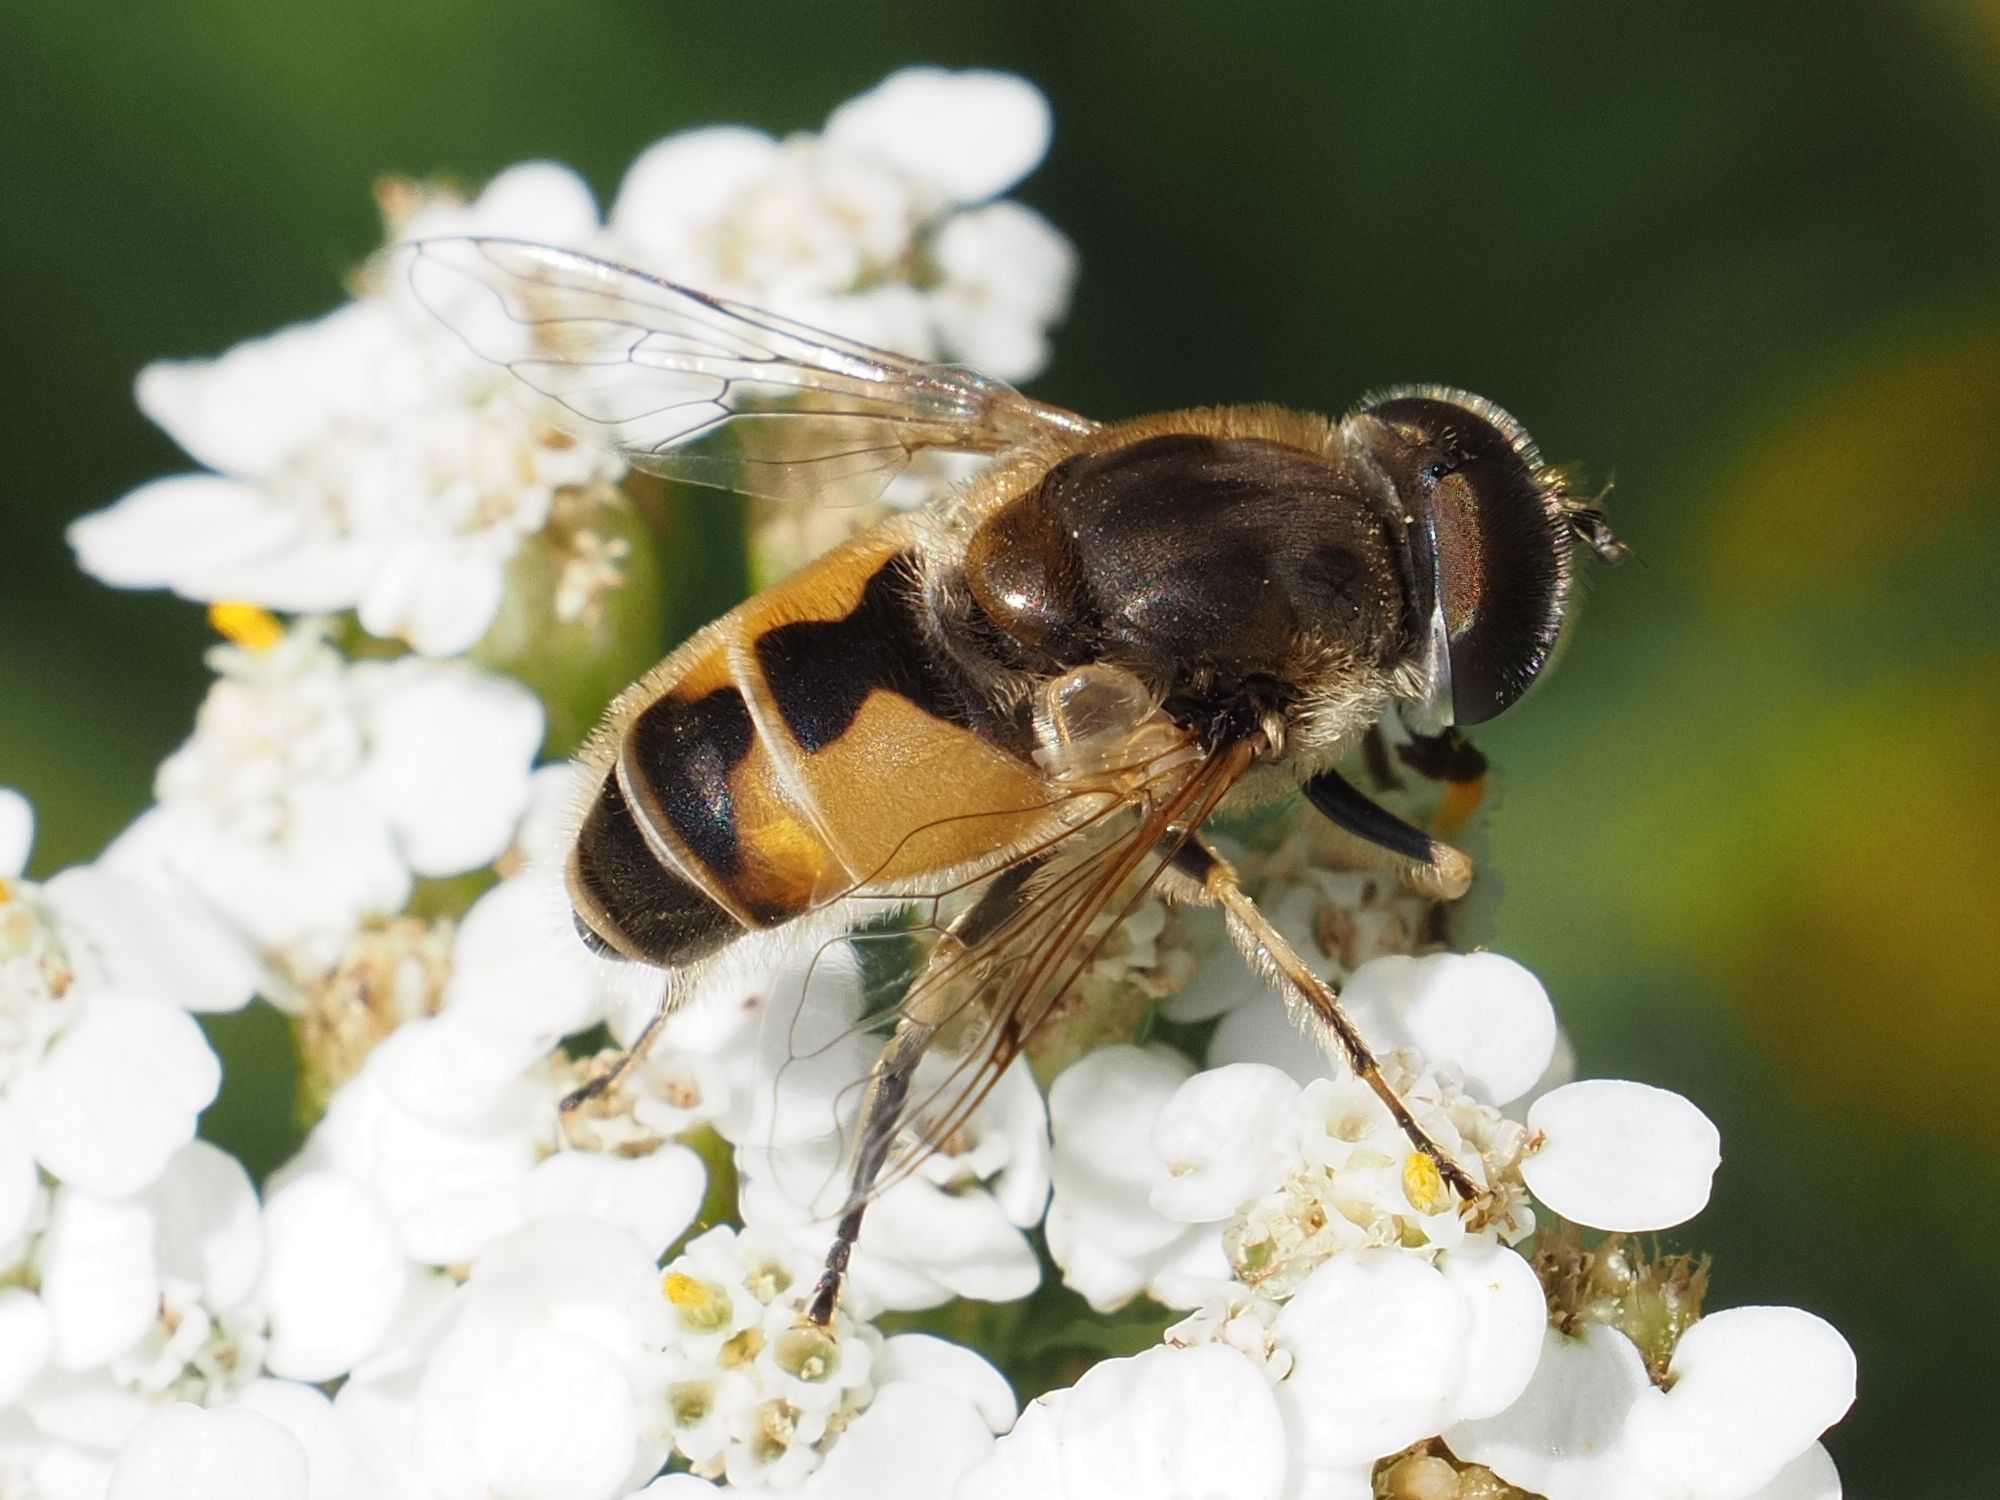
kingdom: Animalia
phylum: Arthropoda
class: Insecta
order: Diptera
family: Syrphidae
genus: Eristalis
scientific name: Eristalis arbustorum
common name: Hover fly
